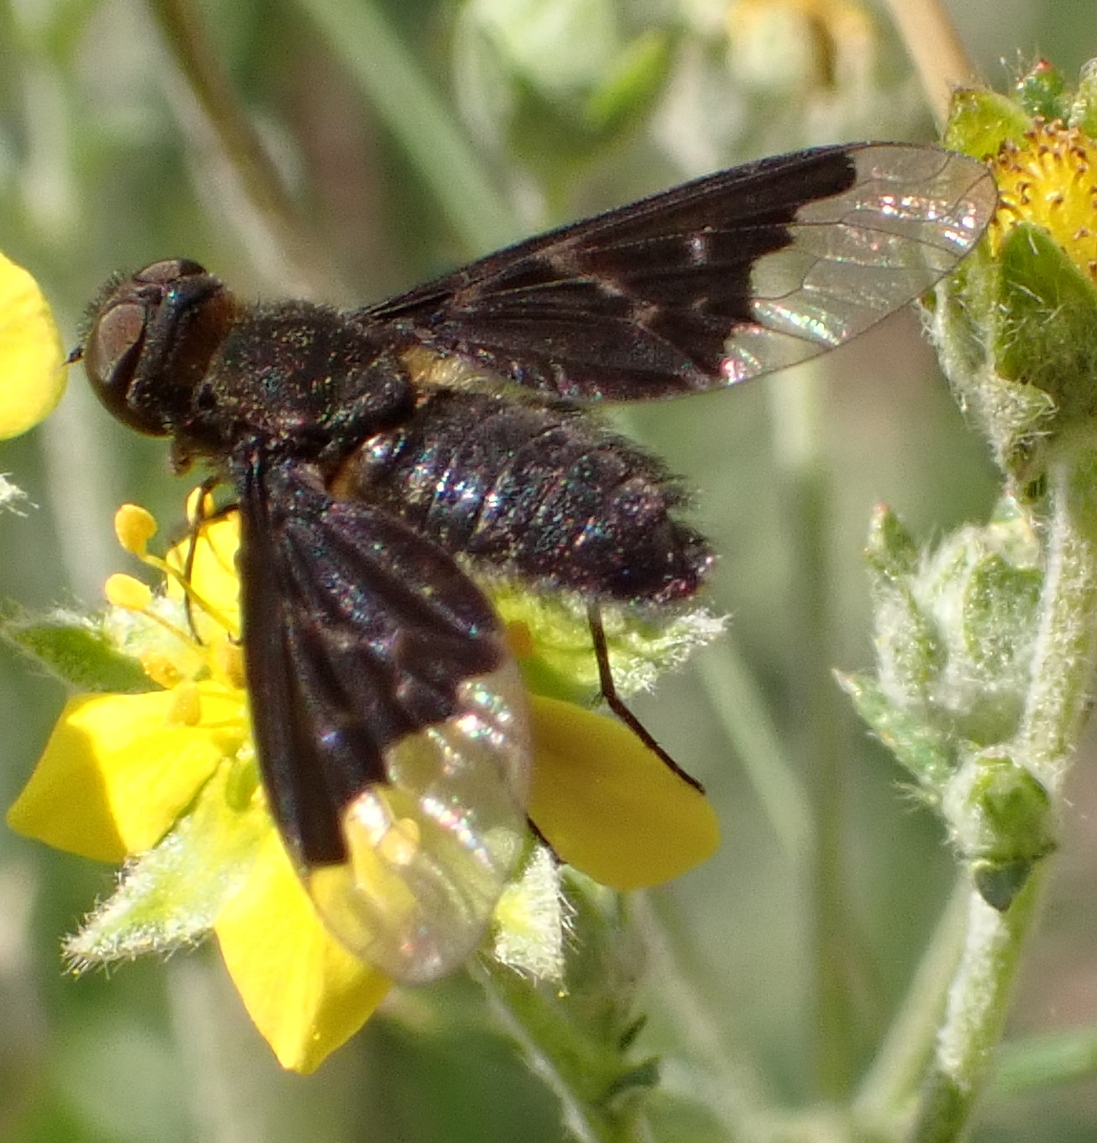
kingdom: Animalia
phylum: Arthropoda
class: Insecta
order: Diptera
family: Bombyliidae
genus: Hemipenthes
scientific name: Hemipenthes morio
